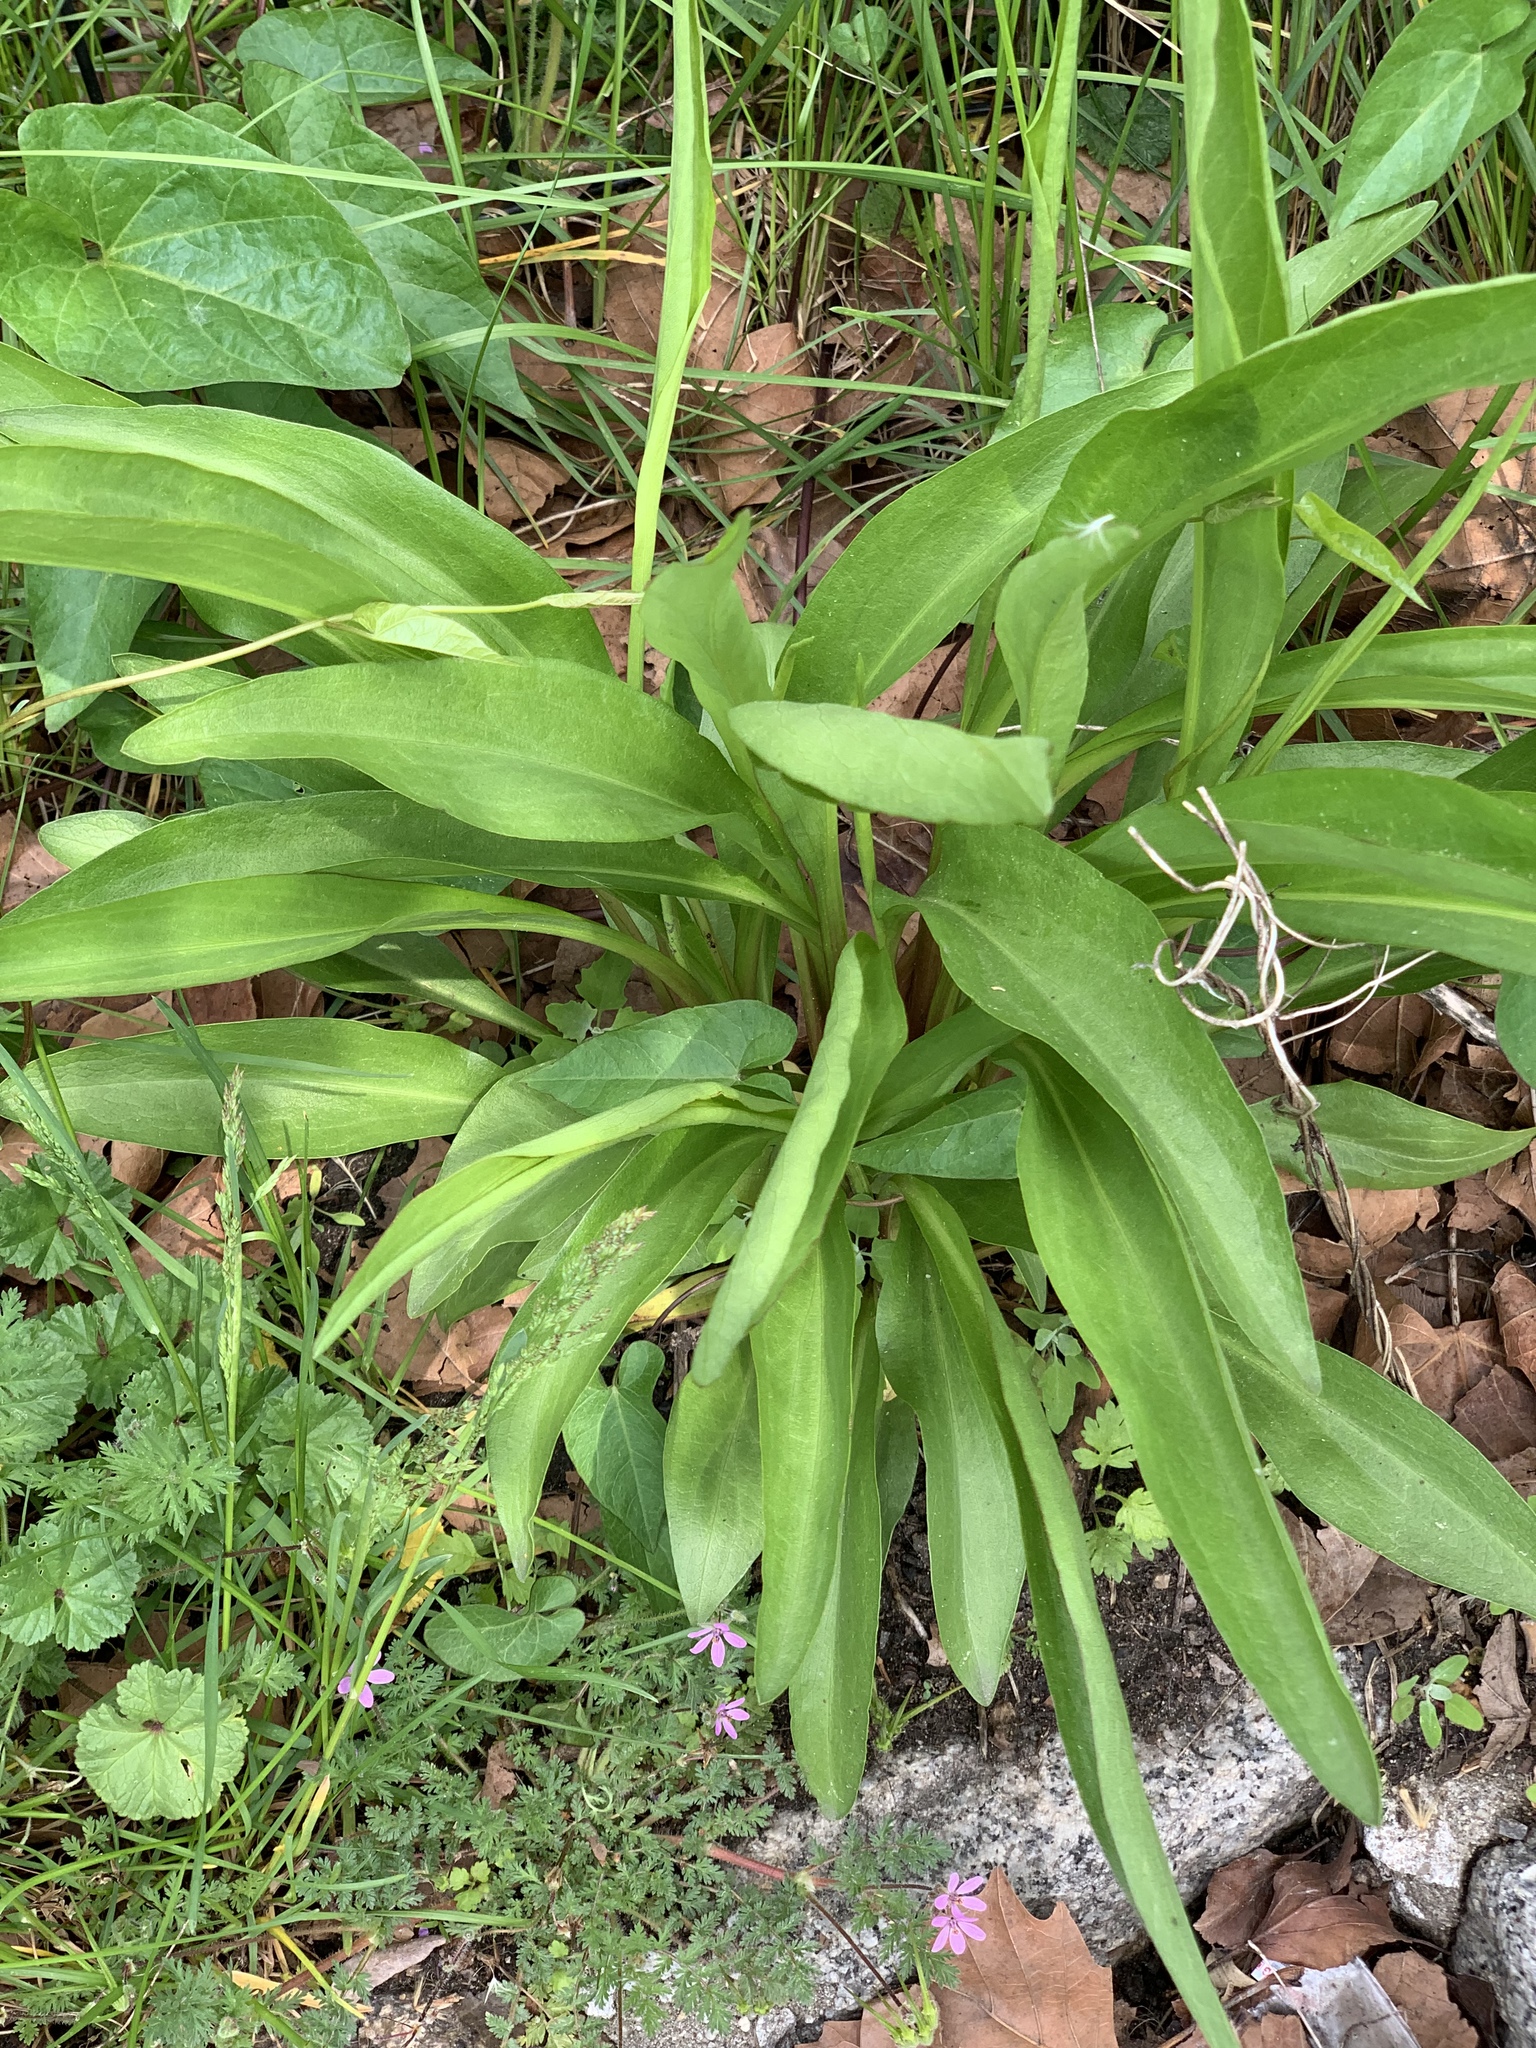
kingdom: Plantae
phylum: Tracheophyta
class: Magnoliopsida
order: Asterales
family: Asteraceae
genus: Solidago
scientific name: Solidago sempervirens
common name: Salt-marsh goldenrod
